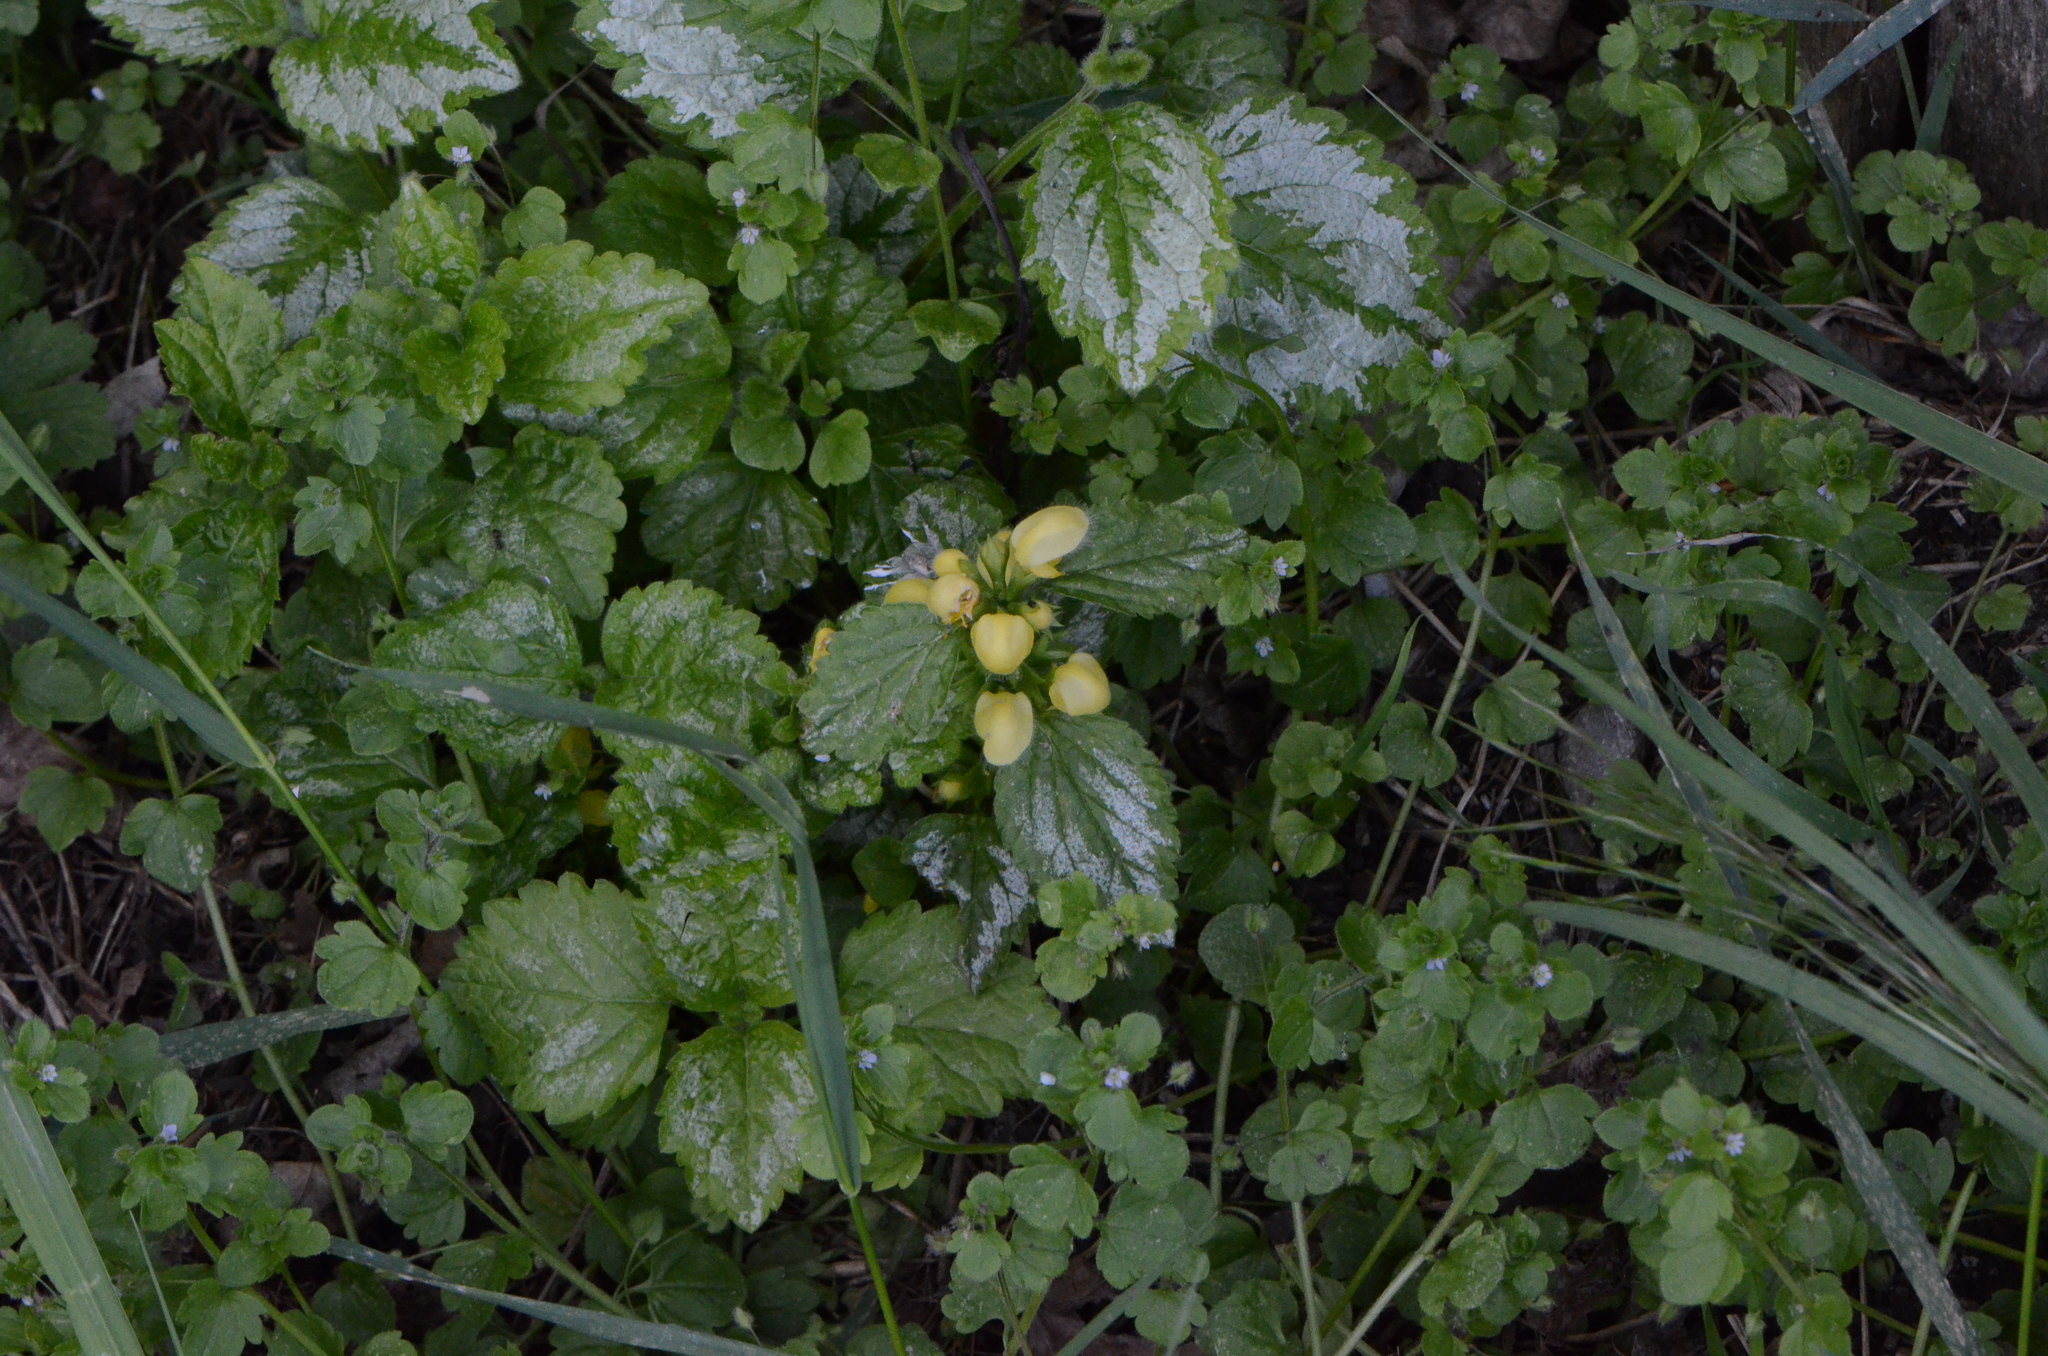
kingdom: Plantae
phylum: Tracheophyta
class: Magnoliopsida
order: Lamiales
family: Lamiaceae
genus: Lamium
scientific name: Lamium galeobdolon
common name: Yellow archangel
